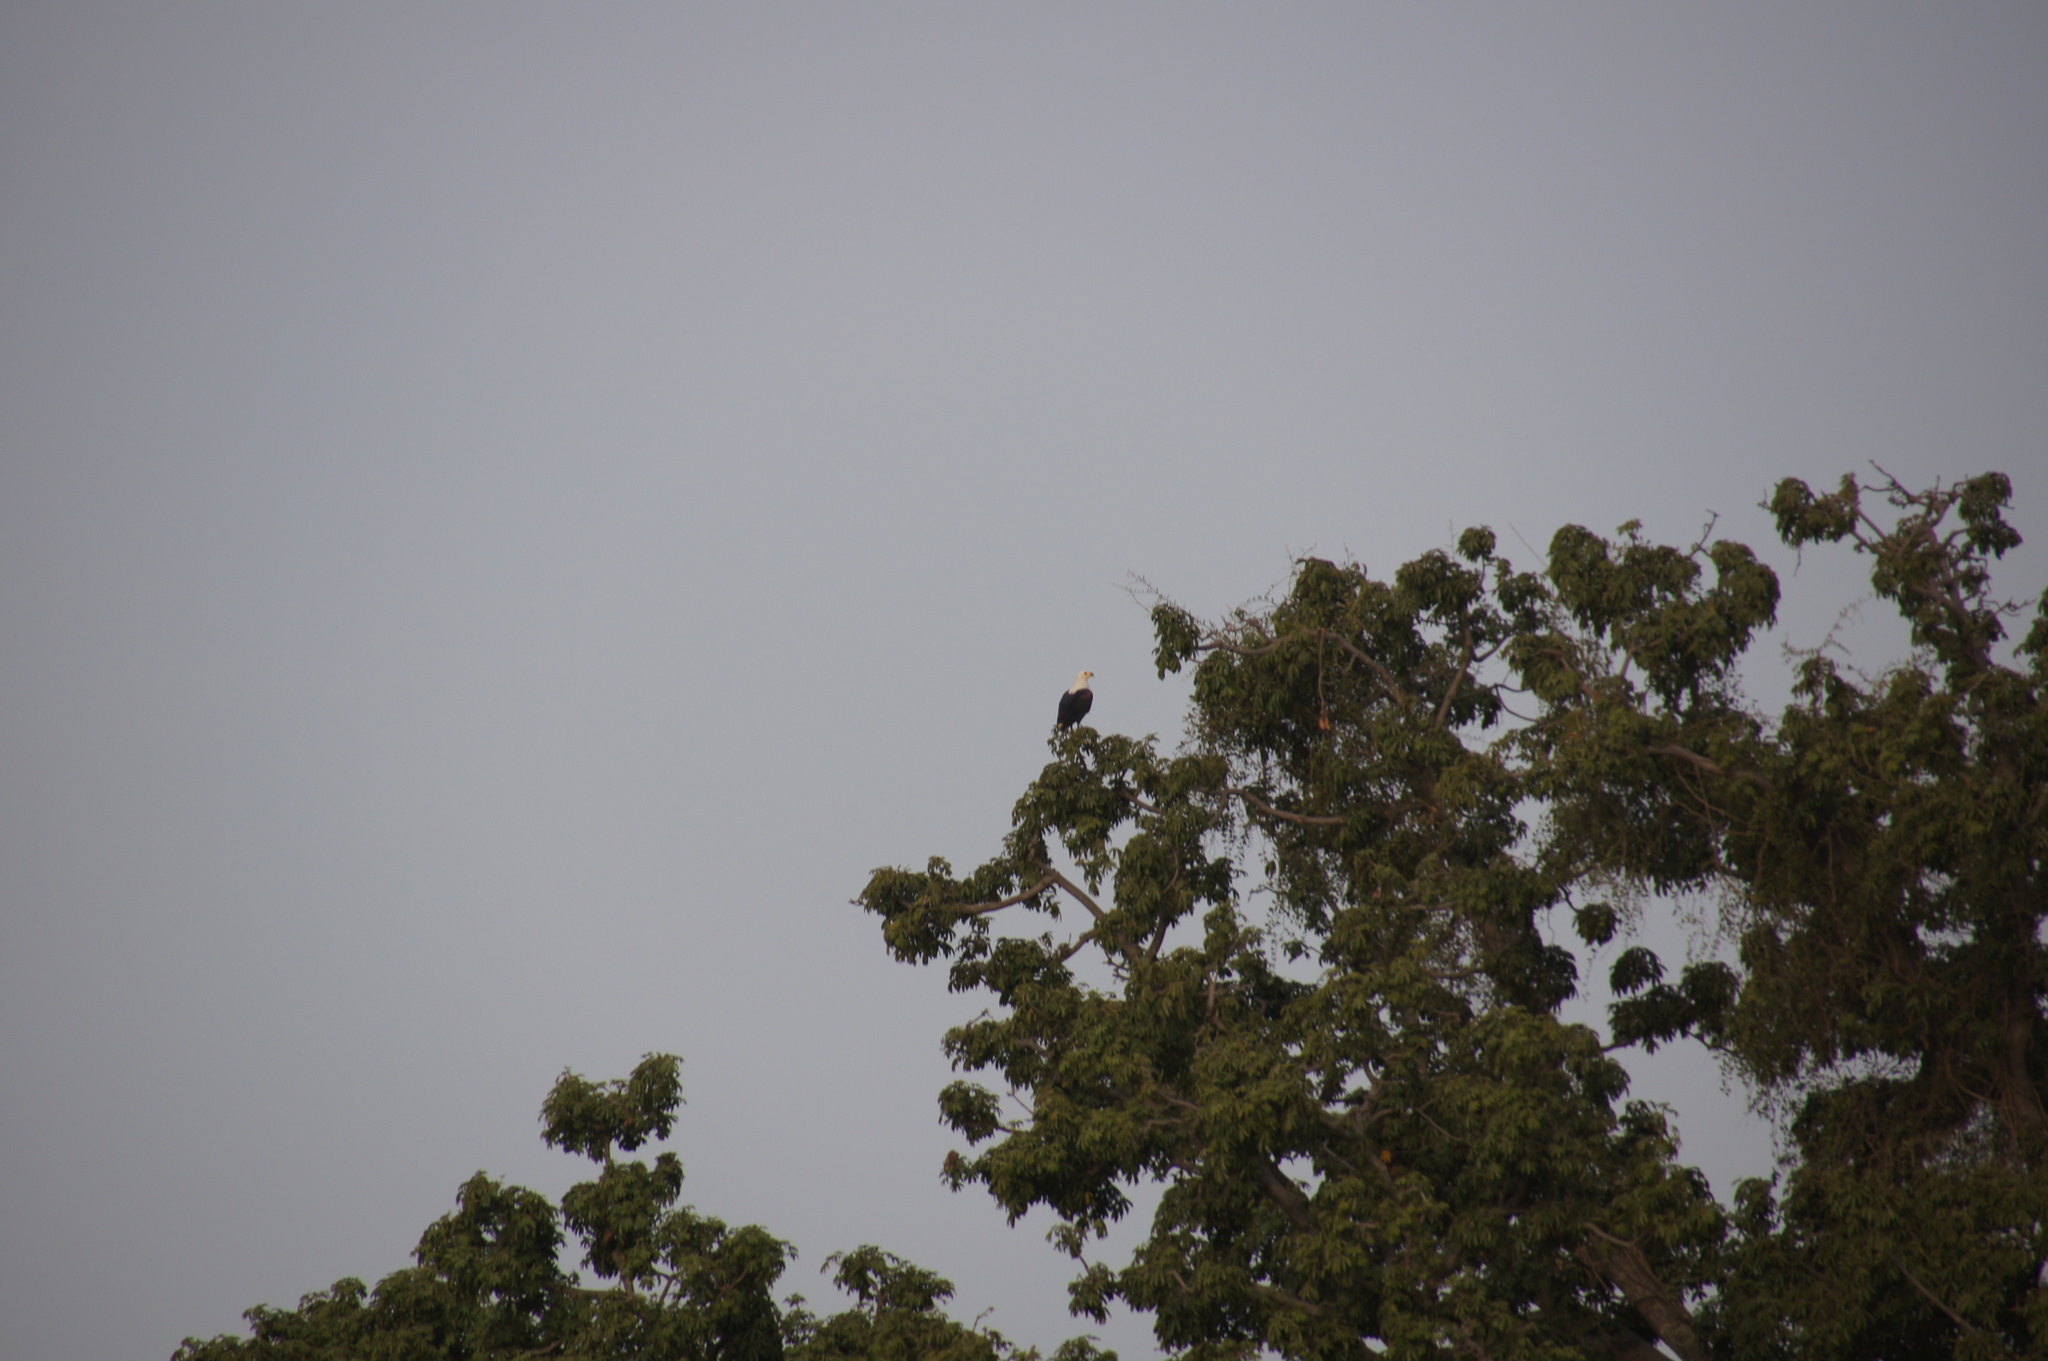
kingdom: Animalia
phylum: Chordata
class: Aves
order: Accipitriformes
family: Accipitridae
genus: Haliaeetus
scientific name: Haliaeetus vocifer
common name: African fish eagle
